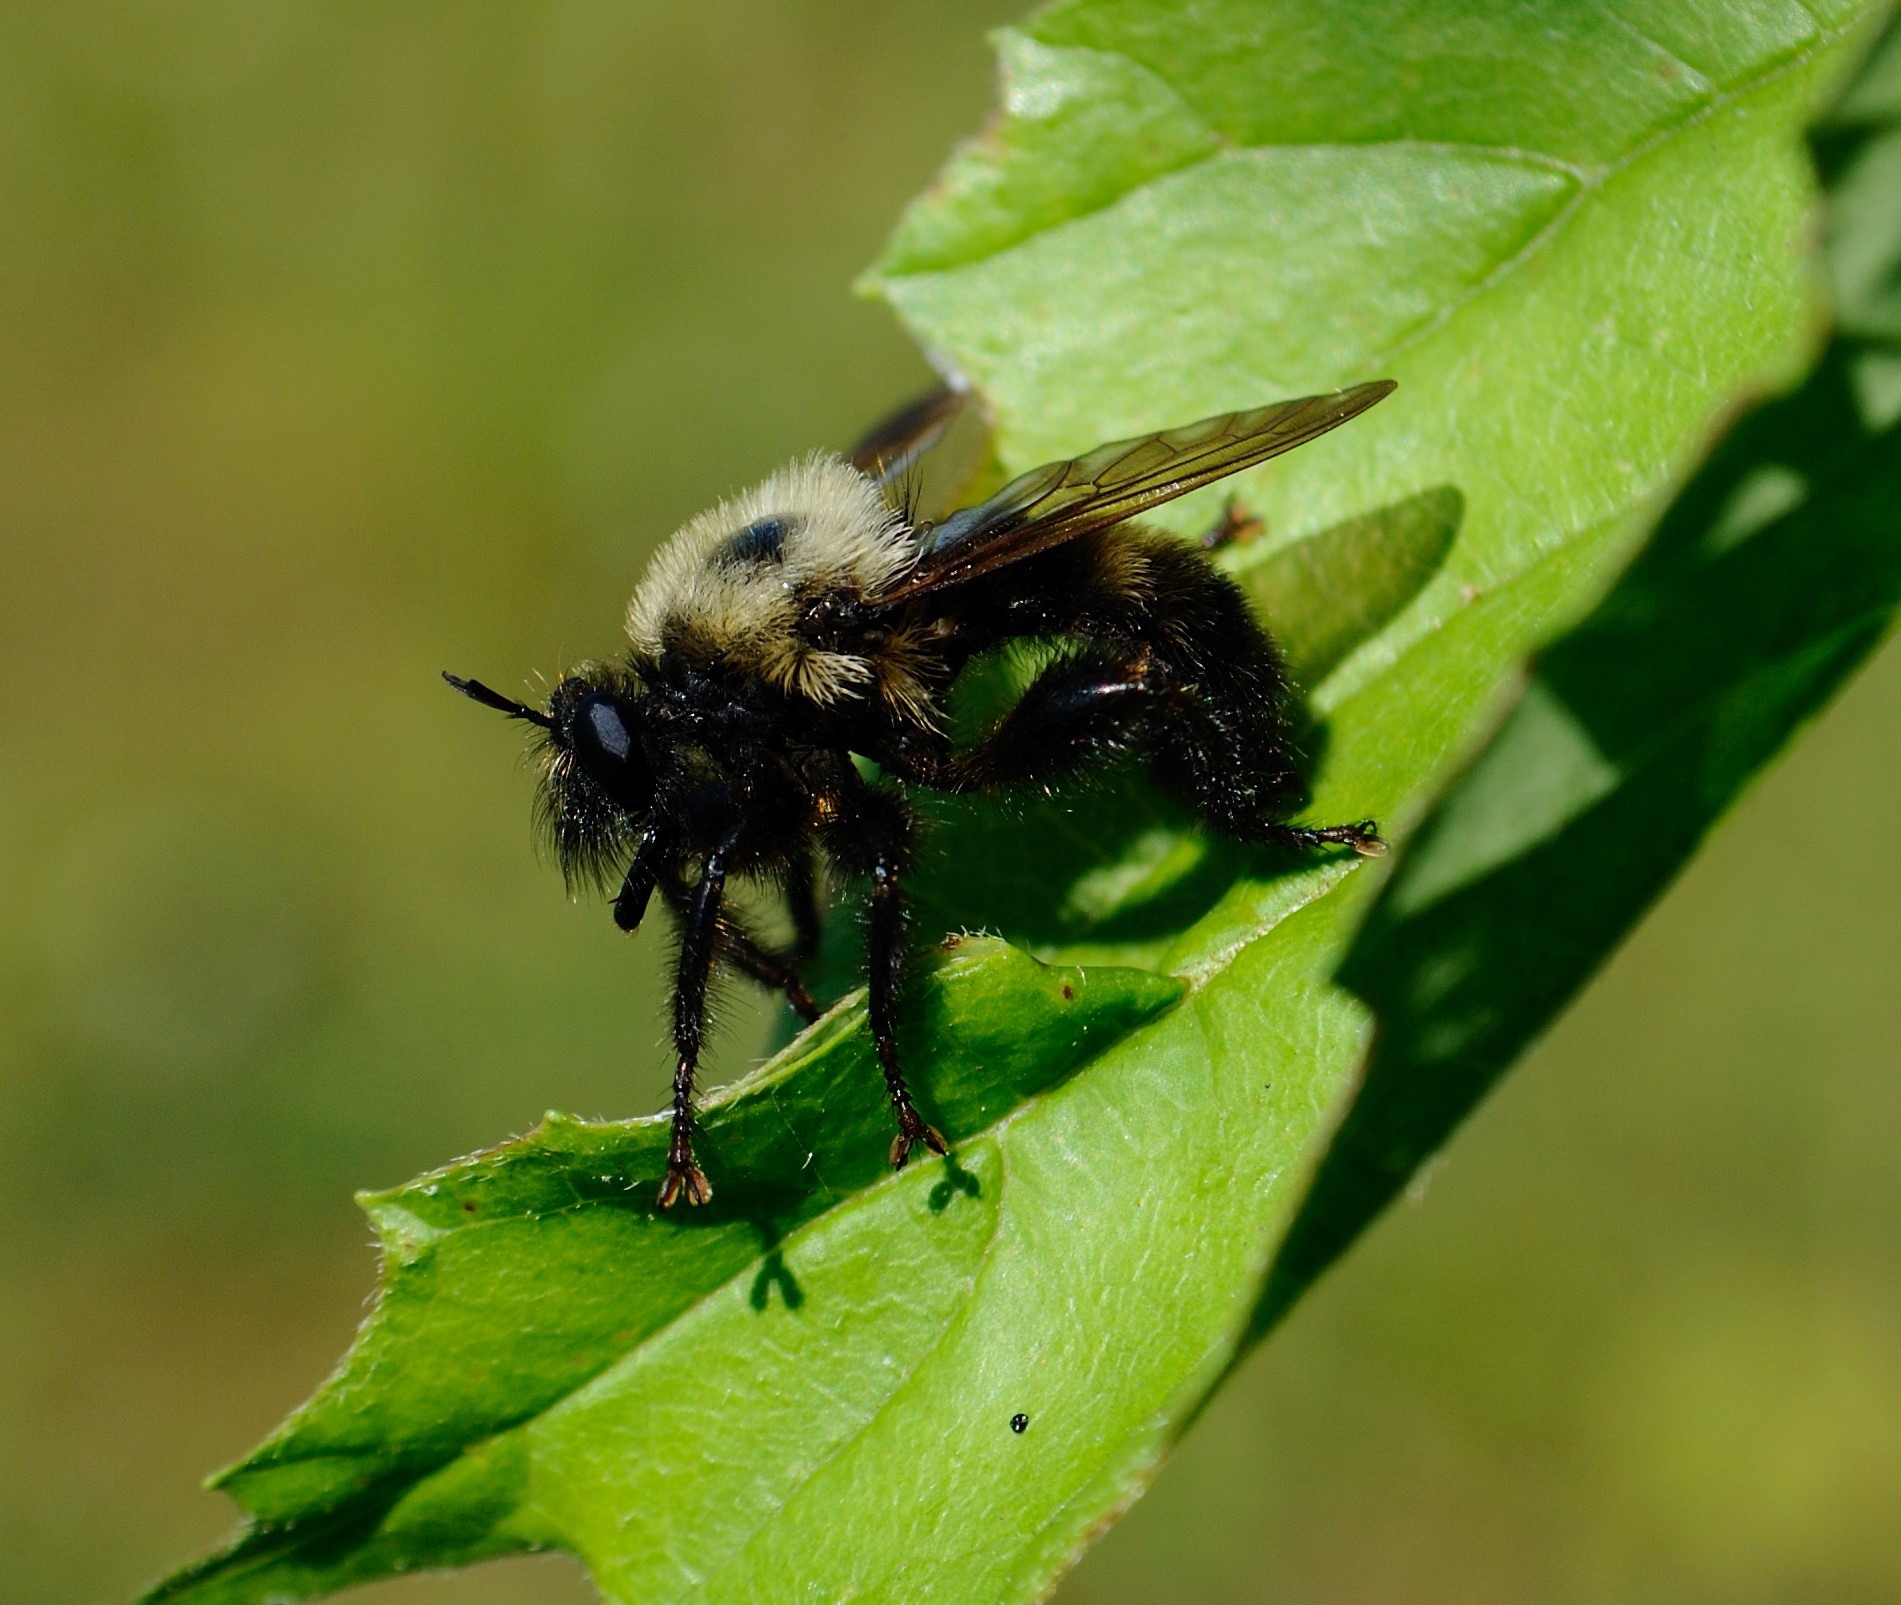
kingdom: Animalia
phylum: Arthropoda
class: Insecta
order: Diptera
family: Asilidae
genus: Laphria
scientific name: Laphria thoracica
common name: Bumble bee mimic robber fly
